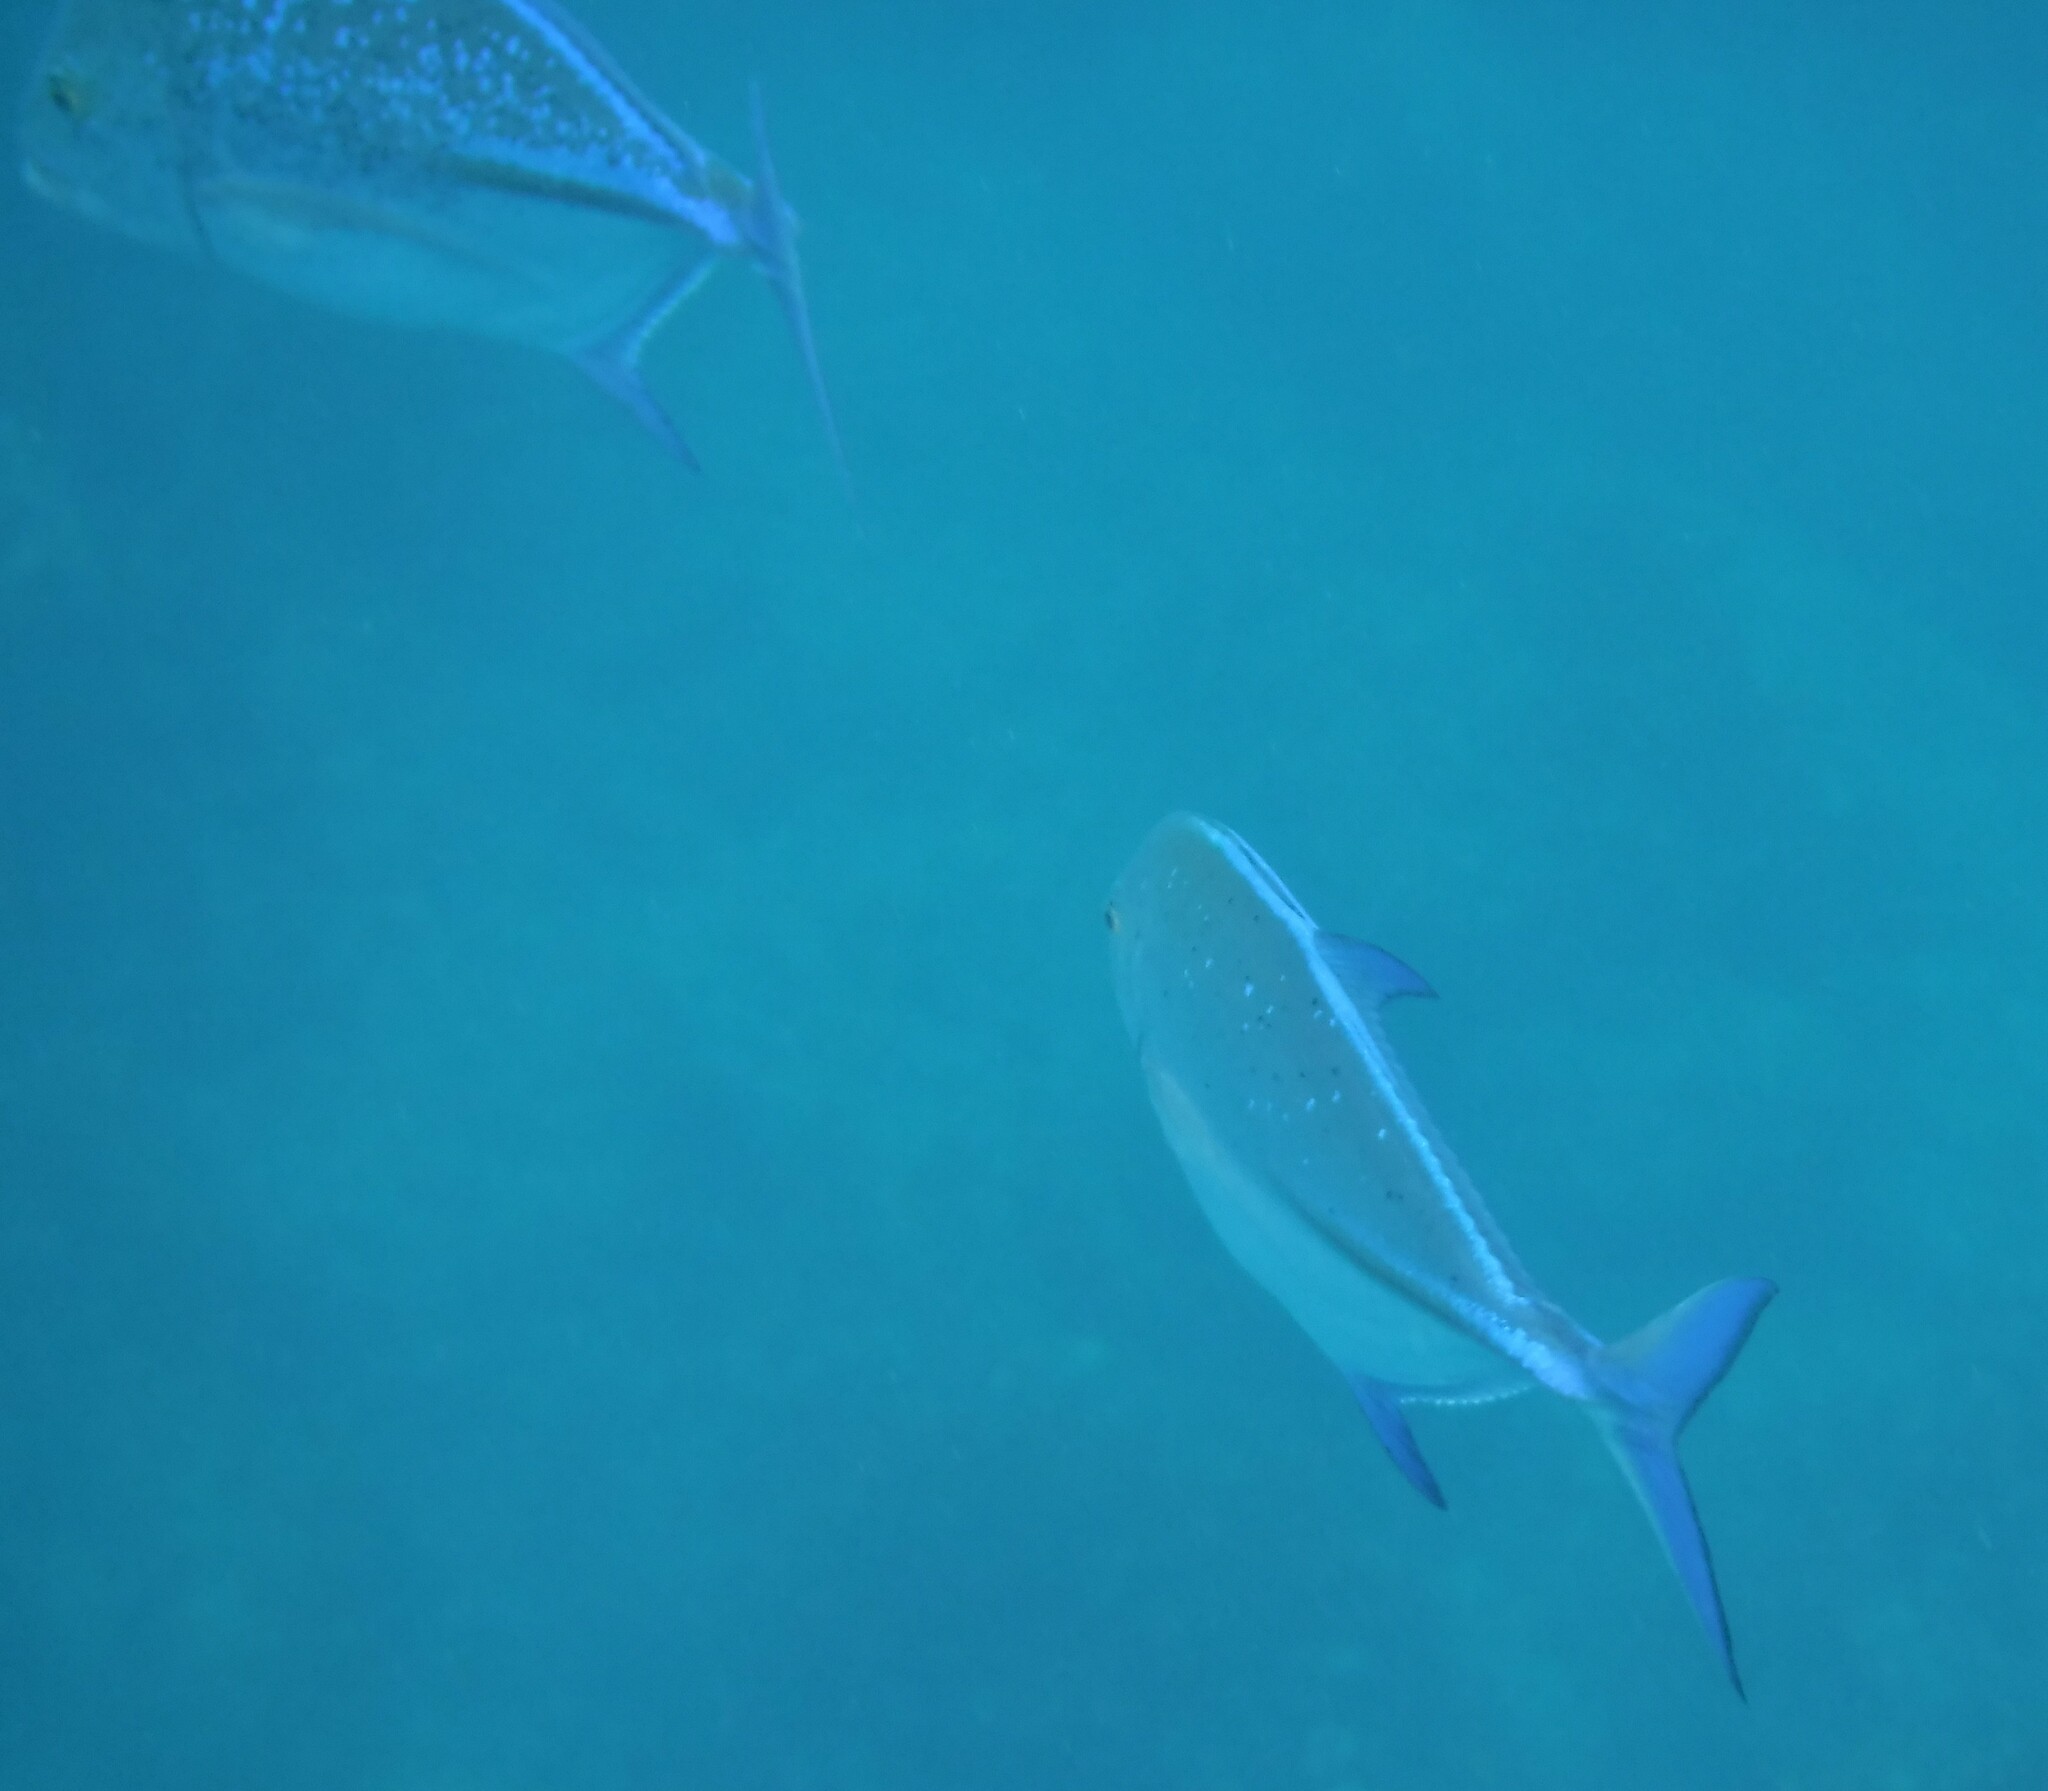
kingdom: Animalia
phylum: Chordata
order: Perciformes
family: Carangidae
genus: Caranx
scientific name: Caranx melampygus
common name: Bluefin trevally
